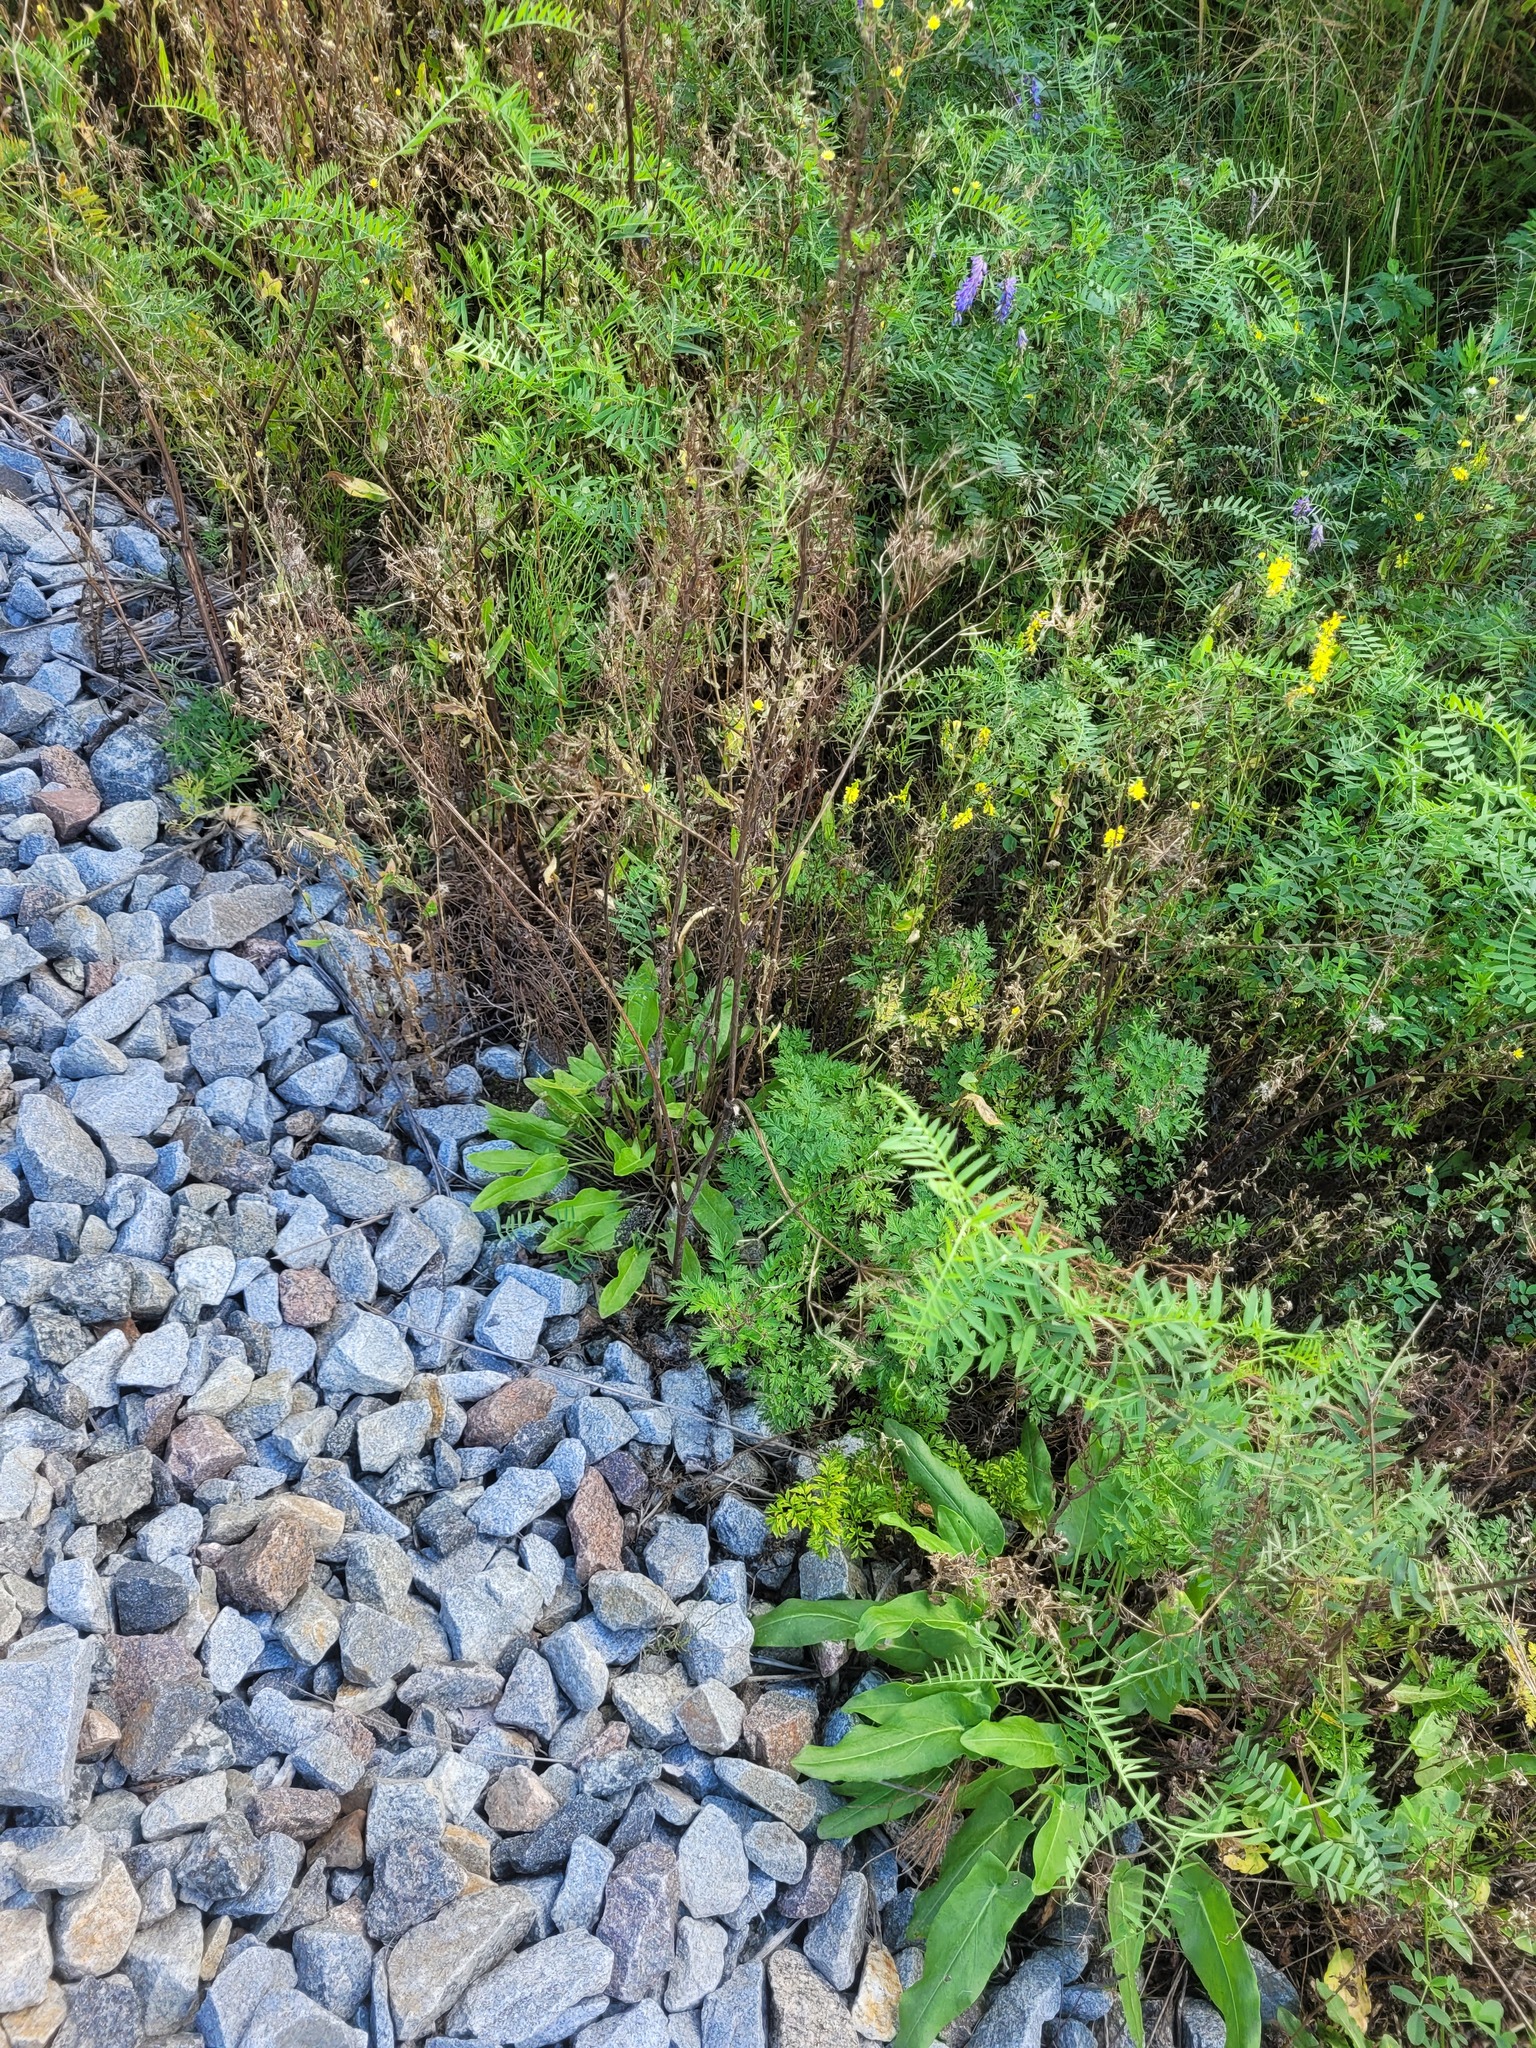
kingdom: Plantae
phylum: Tracheophyta
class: Magnoliopsida
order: Caryophyllales
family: Polygonaceae
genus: Rumex
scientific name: Rumex thyrsiflorus
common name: Garden sorrel
